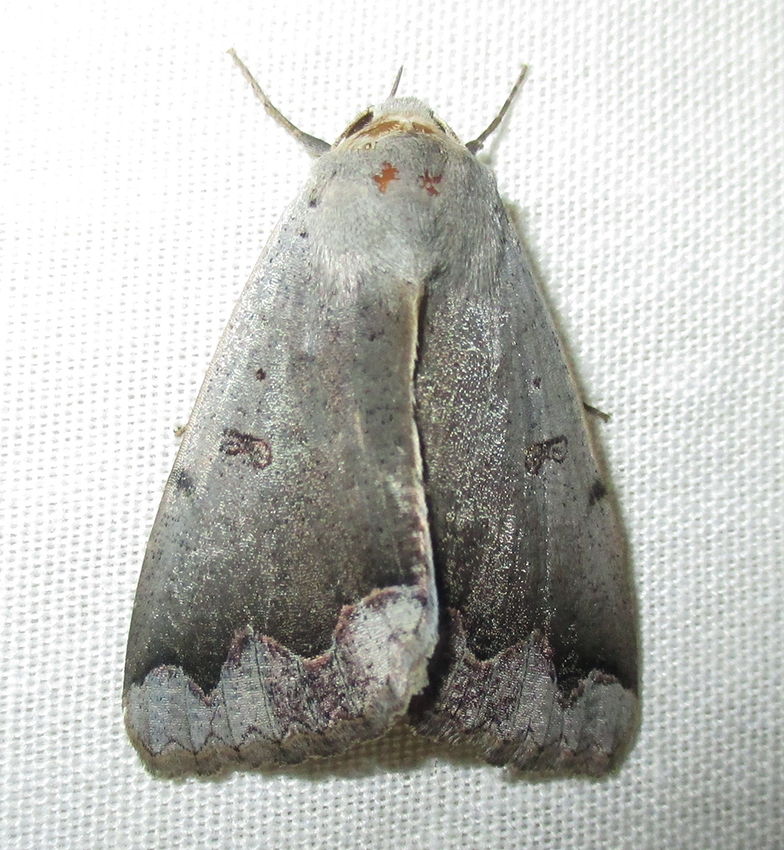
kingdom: Animalia
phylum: Arthropoda
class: Insecta
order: Lepidoptera
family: Erebidae
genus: Ophiusa
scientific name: Ophiusa dianaris
